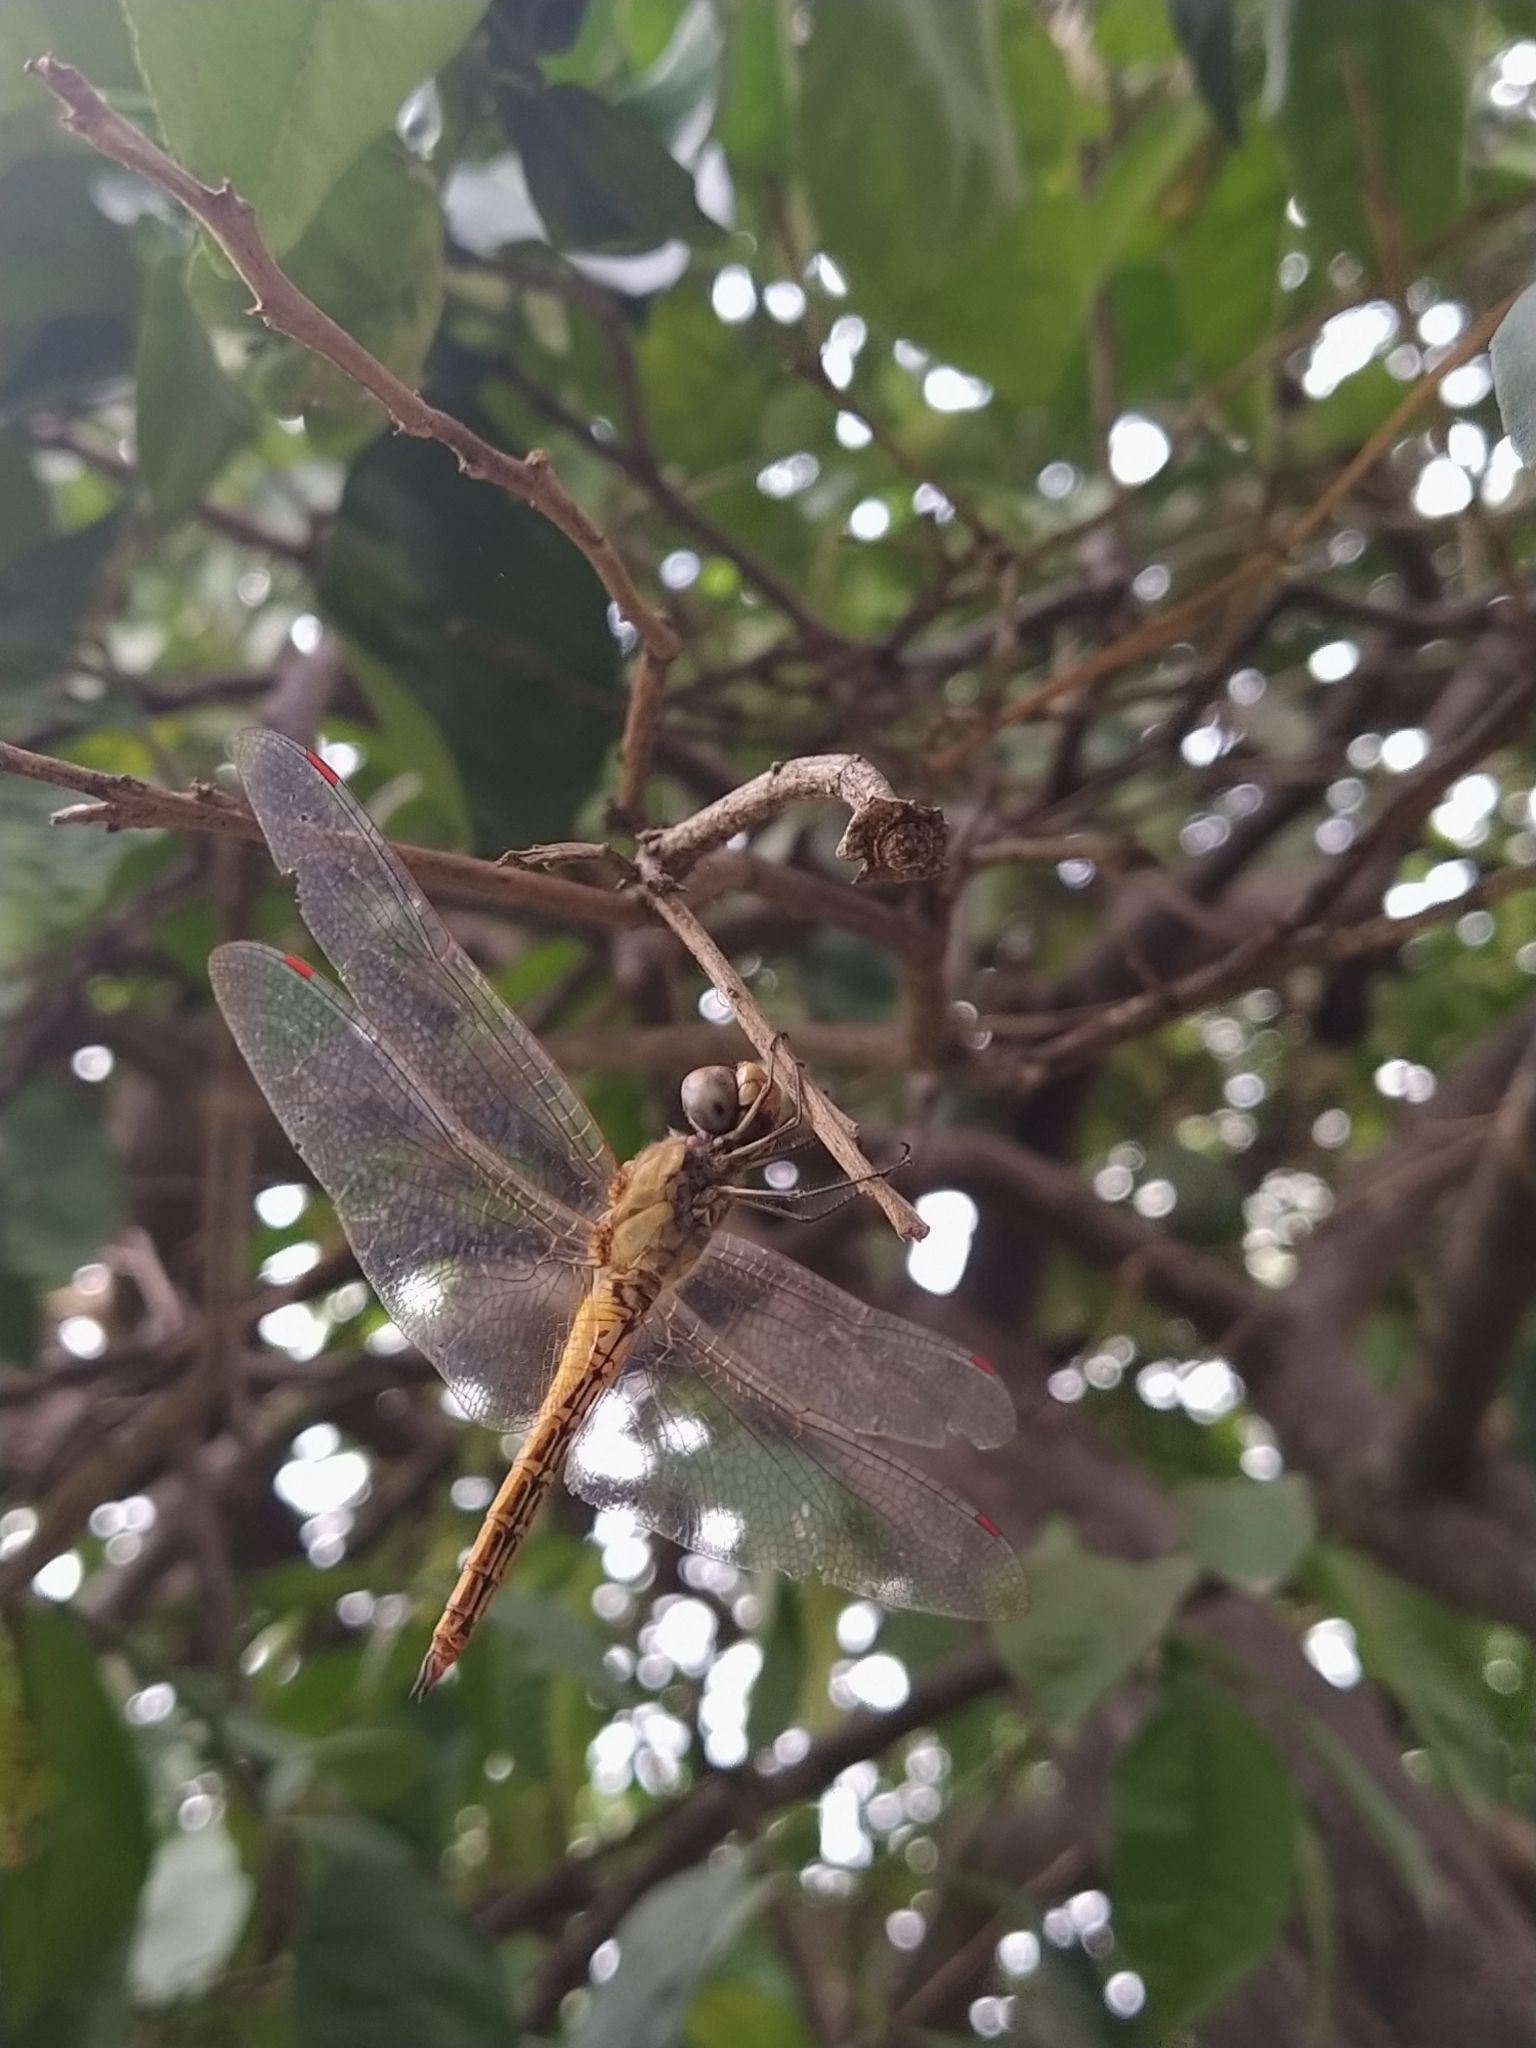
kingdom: Animalia
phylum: Arthropoda
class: Insecta
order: Odonata
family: Libellulidae
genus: Pantala
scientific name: Pantala flavescens
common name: Wandering glider
